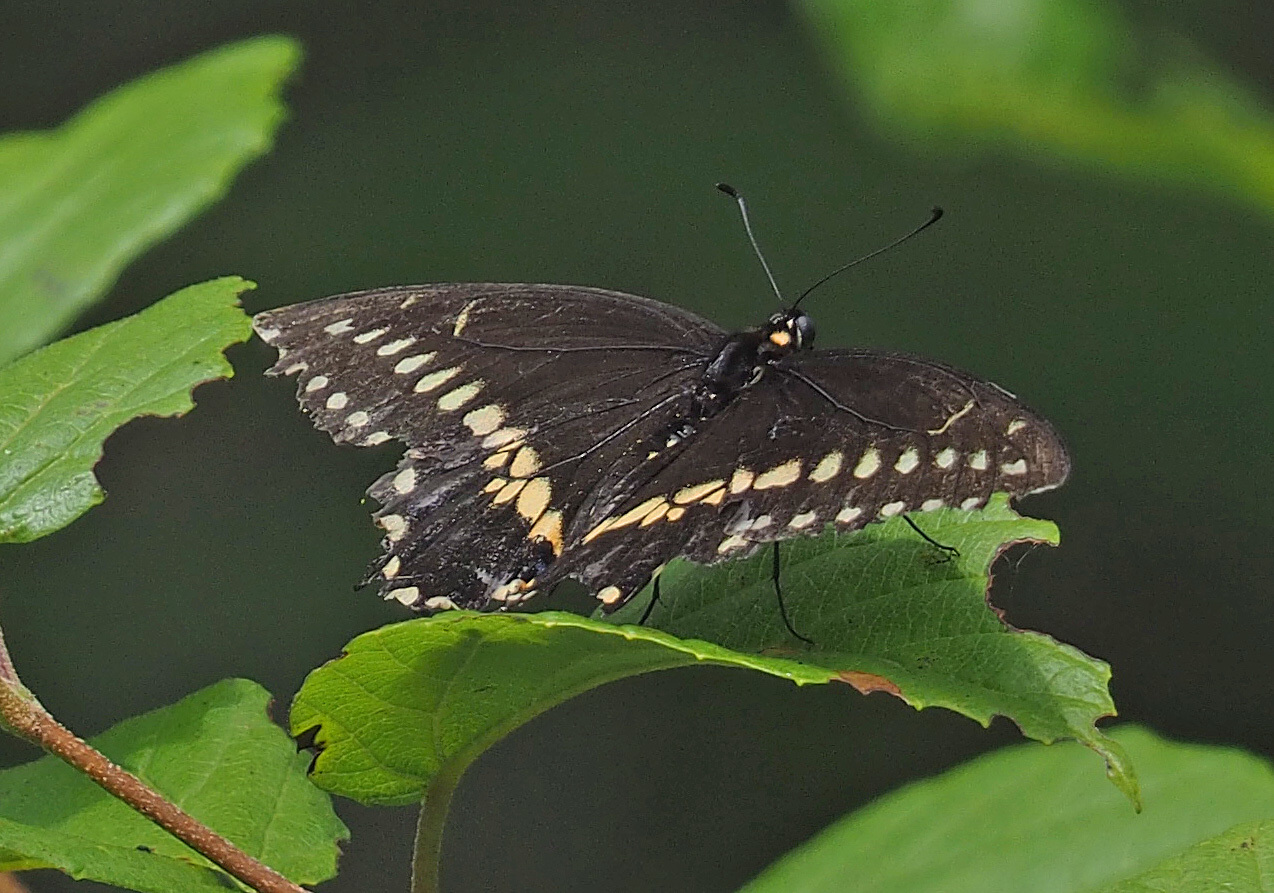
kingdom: Animalia
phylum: Arthropoda
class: Insecta
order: Lepidoptera
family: Papilionidae
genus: Papilio
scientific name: Papilio polyxenes
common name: Black swallowtail
